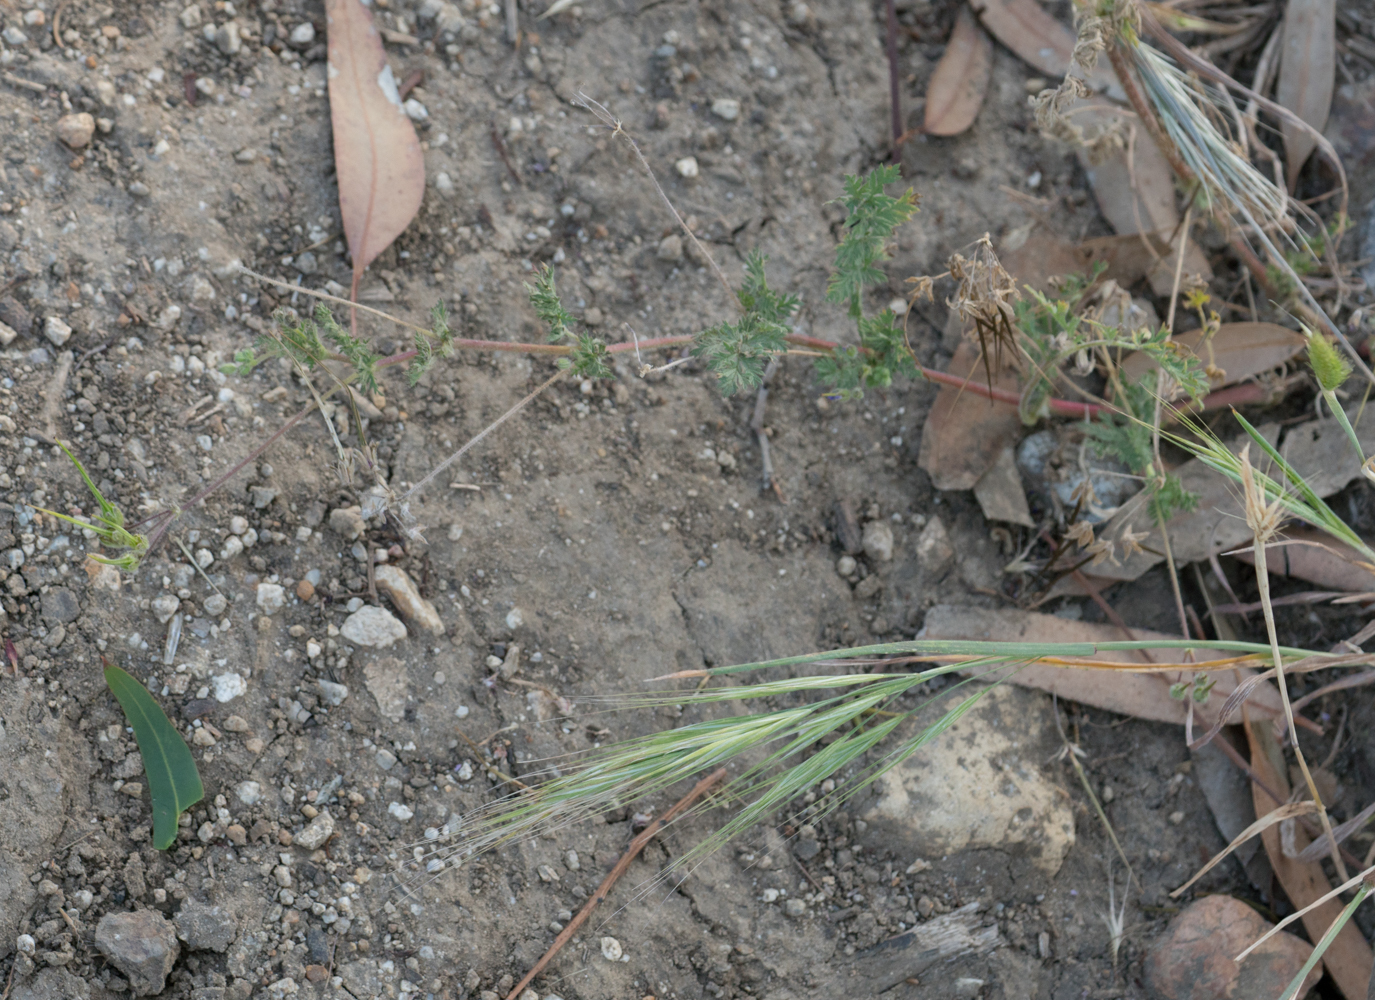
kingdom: Plantae
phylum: Tracheophyta
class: Magnoliopsida
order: Geraniales
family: Geraniaceae
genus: Erodium
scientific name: Erodium cicutarium
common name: Common stork's-bill
